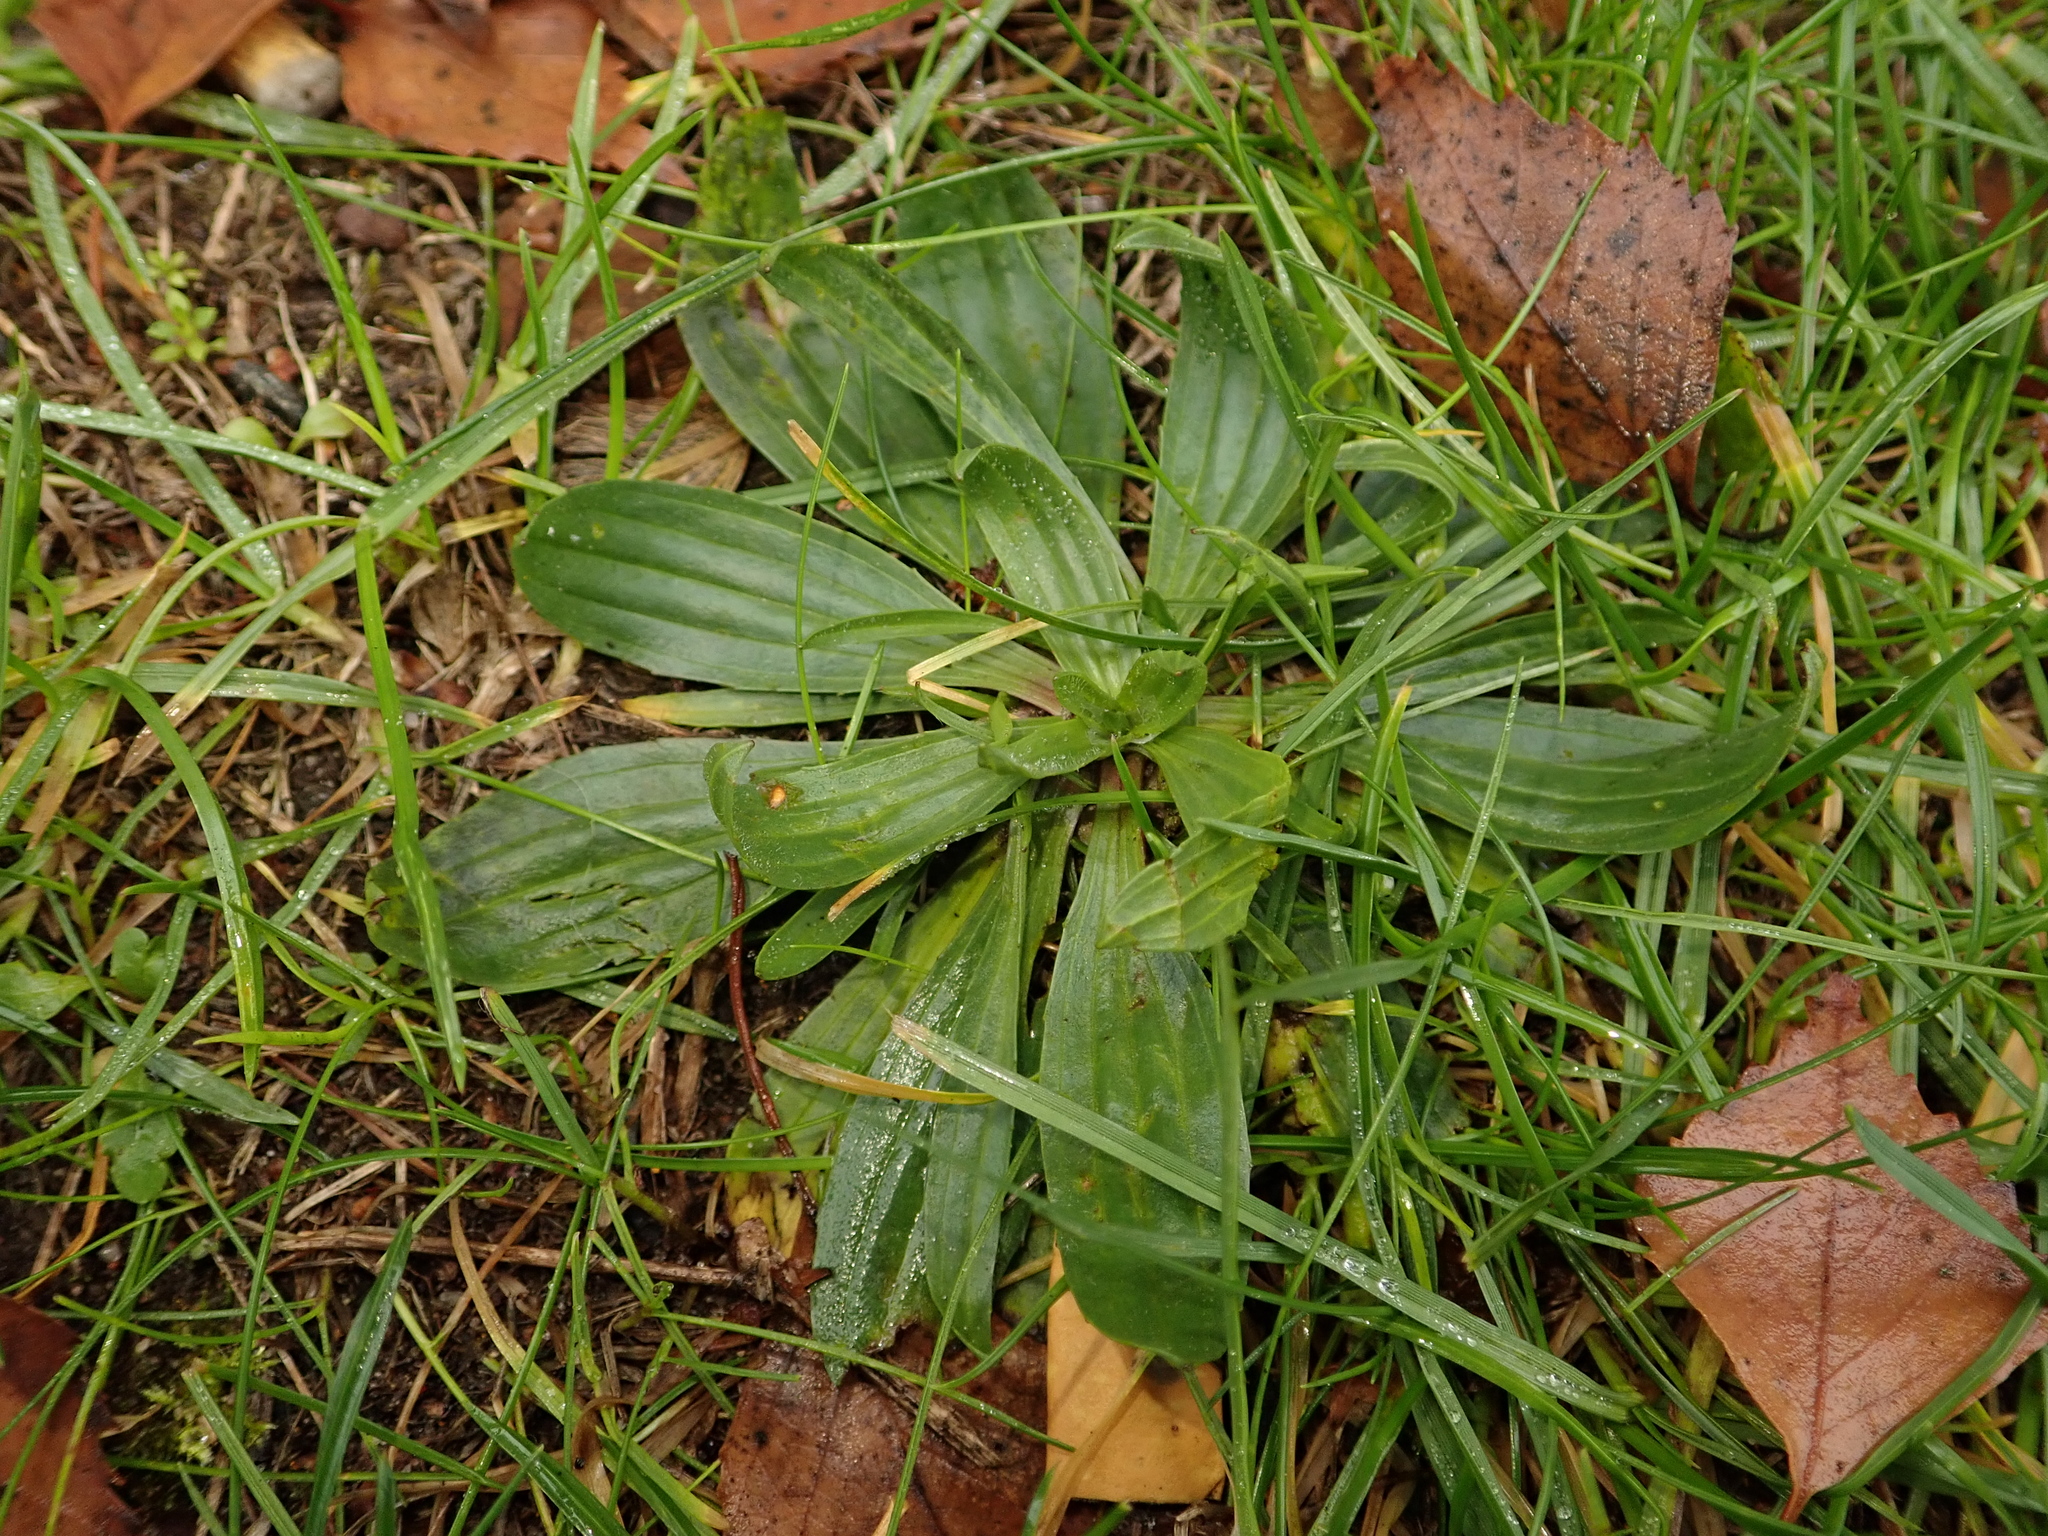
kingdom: Plantae
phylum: Tracheophyta
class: Magnoliopsida
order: Lamiales
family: Plantaginaceae
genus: Plantago
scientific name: Plantago lanceolata
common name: Ribwort plantain
